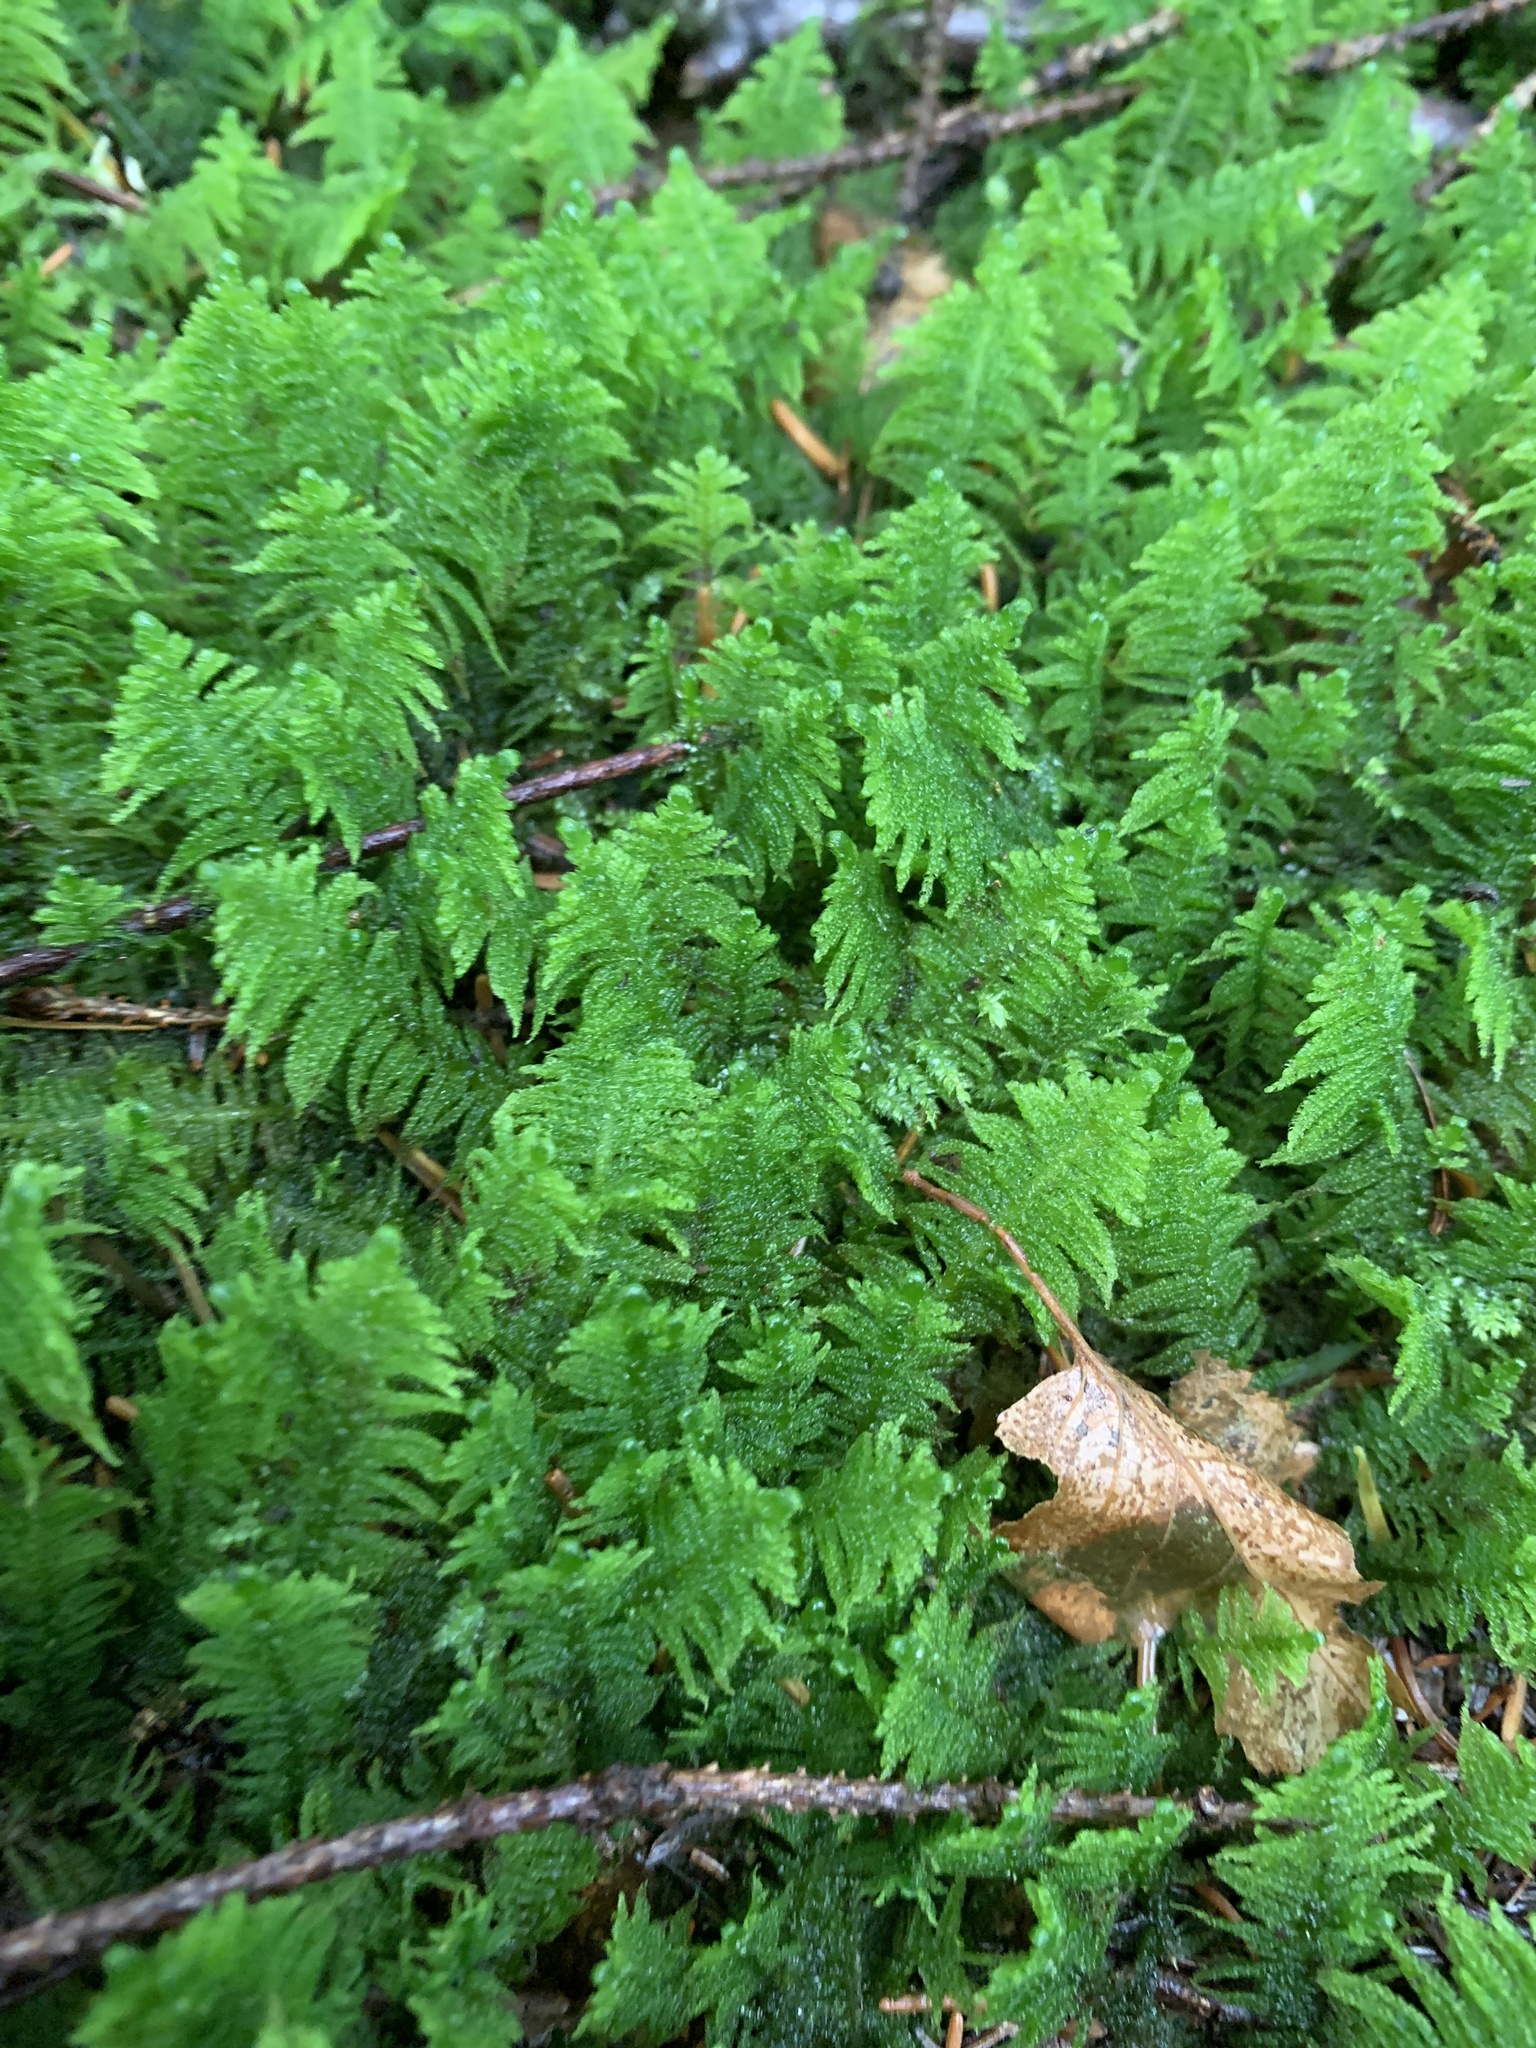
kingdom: Plantae
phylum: Bryophyta
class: Bryopsida
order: Hypnales
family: Pylaisiaceae
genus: Ptilium
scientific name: Ptilium crista-castrensis
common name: Knight's plume moss
